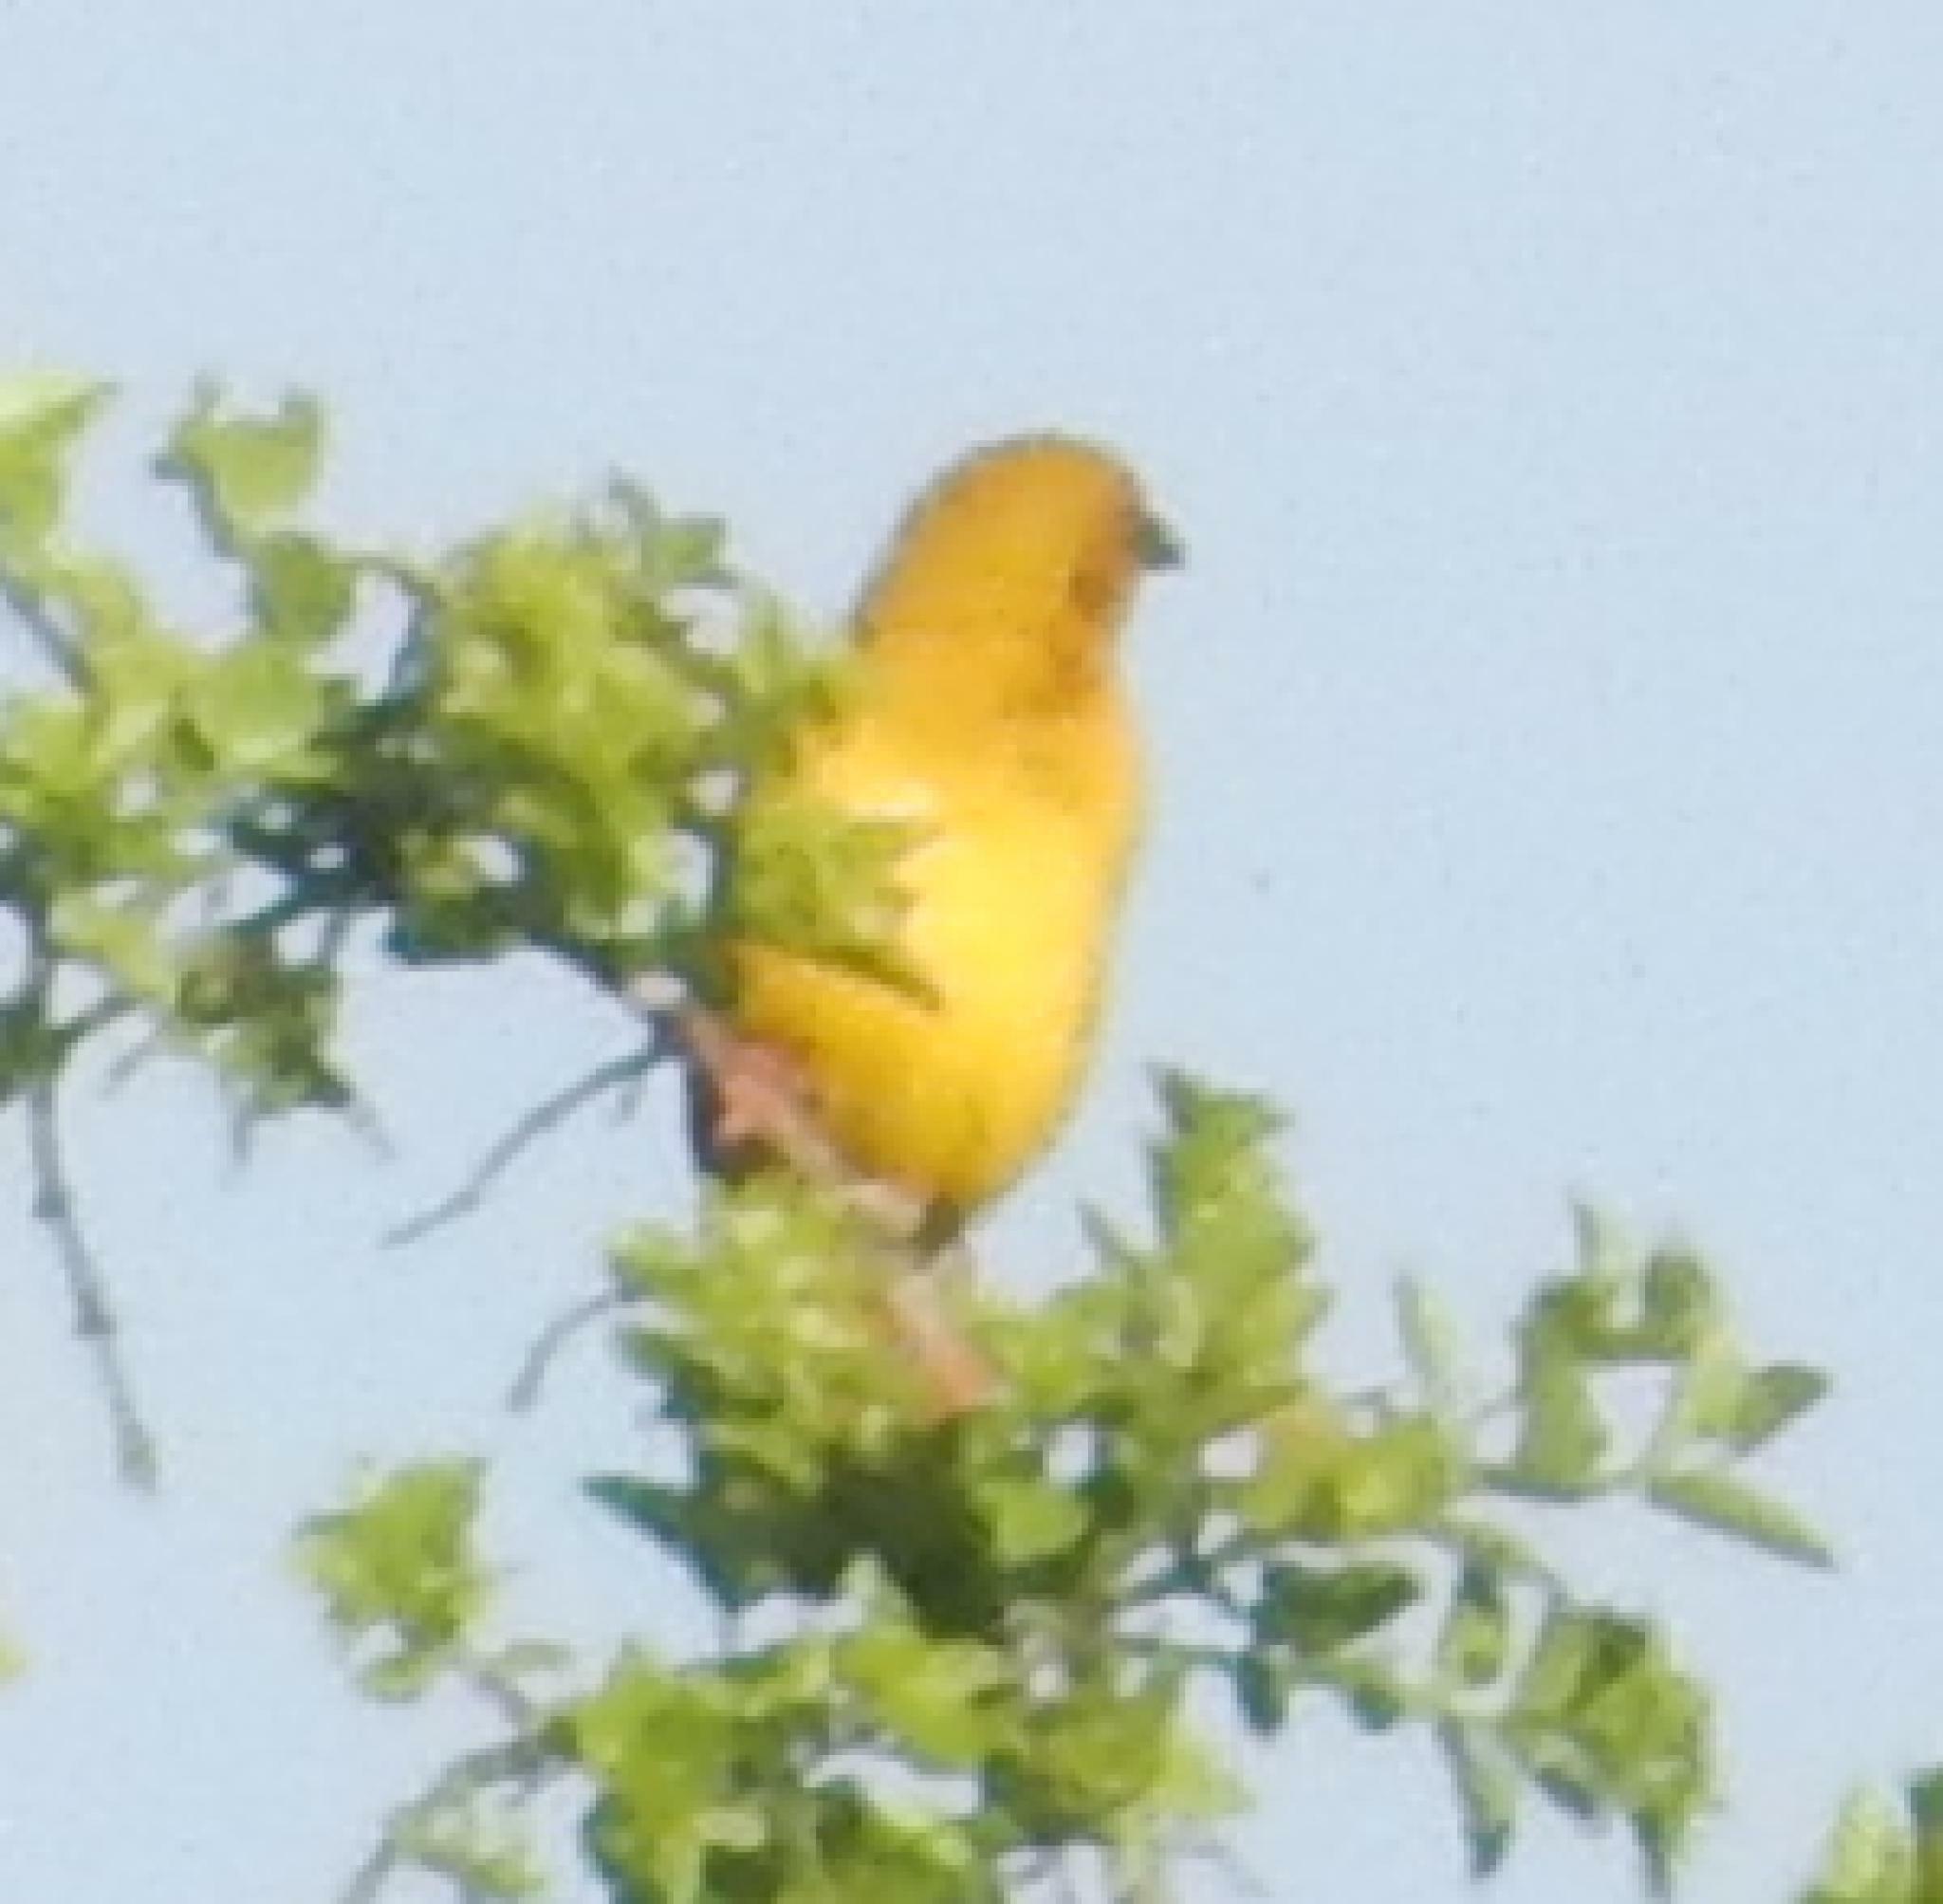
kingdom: Animalia
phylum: Chordata
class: Aves
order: Passeriformes
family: Ploceidae
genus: Ploceus
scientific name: Ploceus subaureus
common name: Yellow weaver
